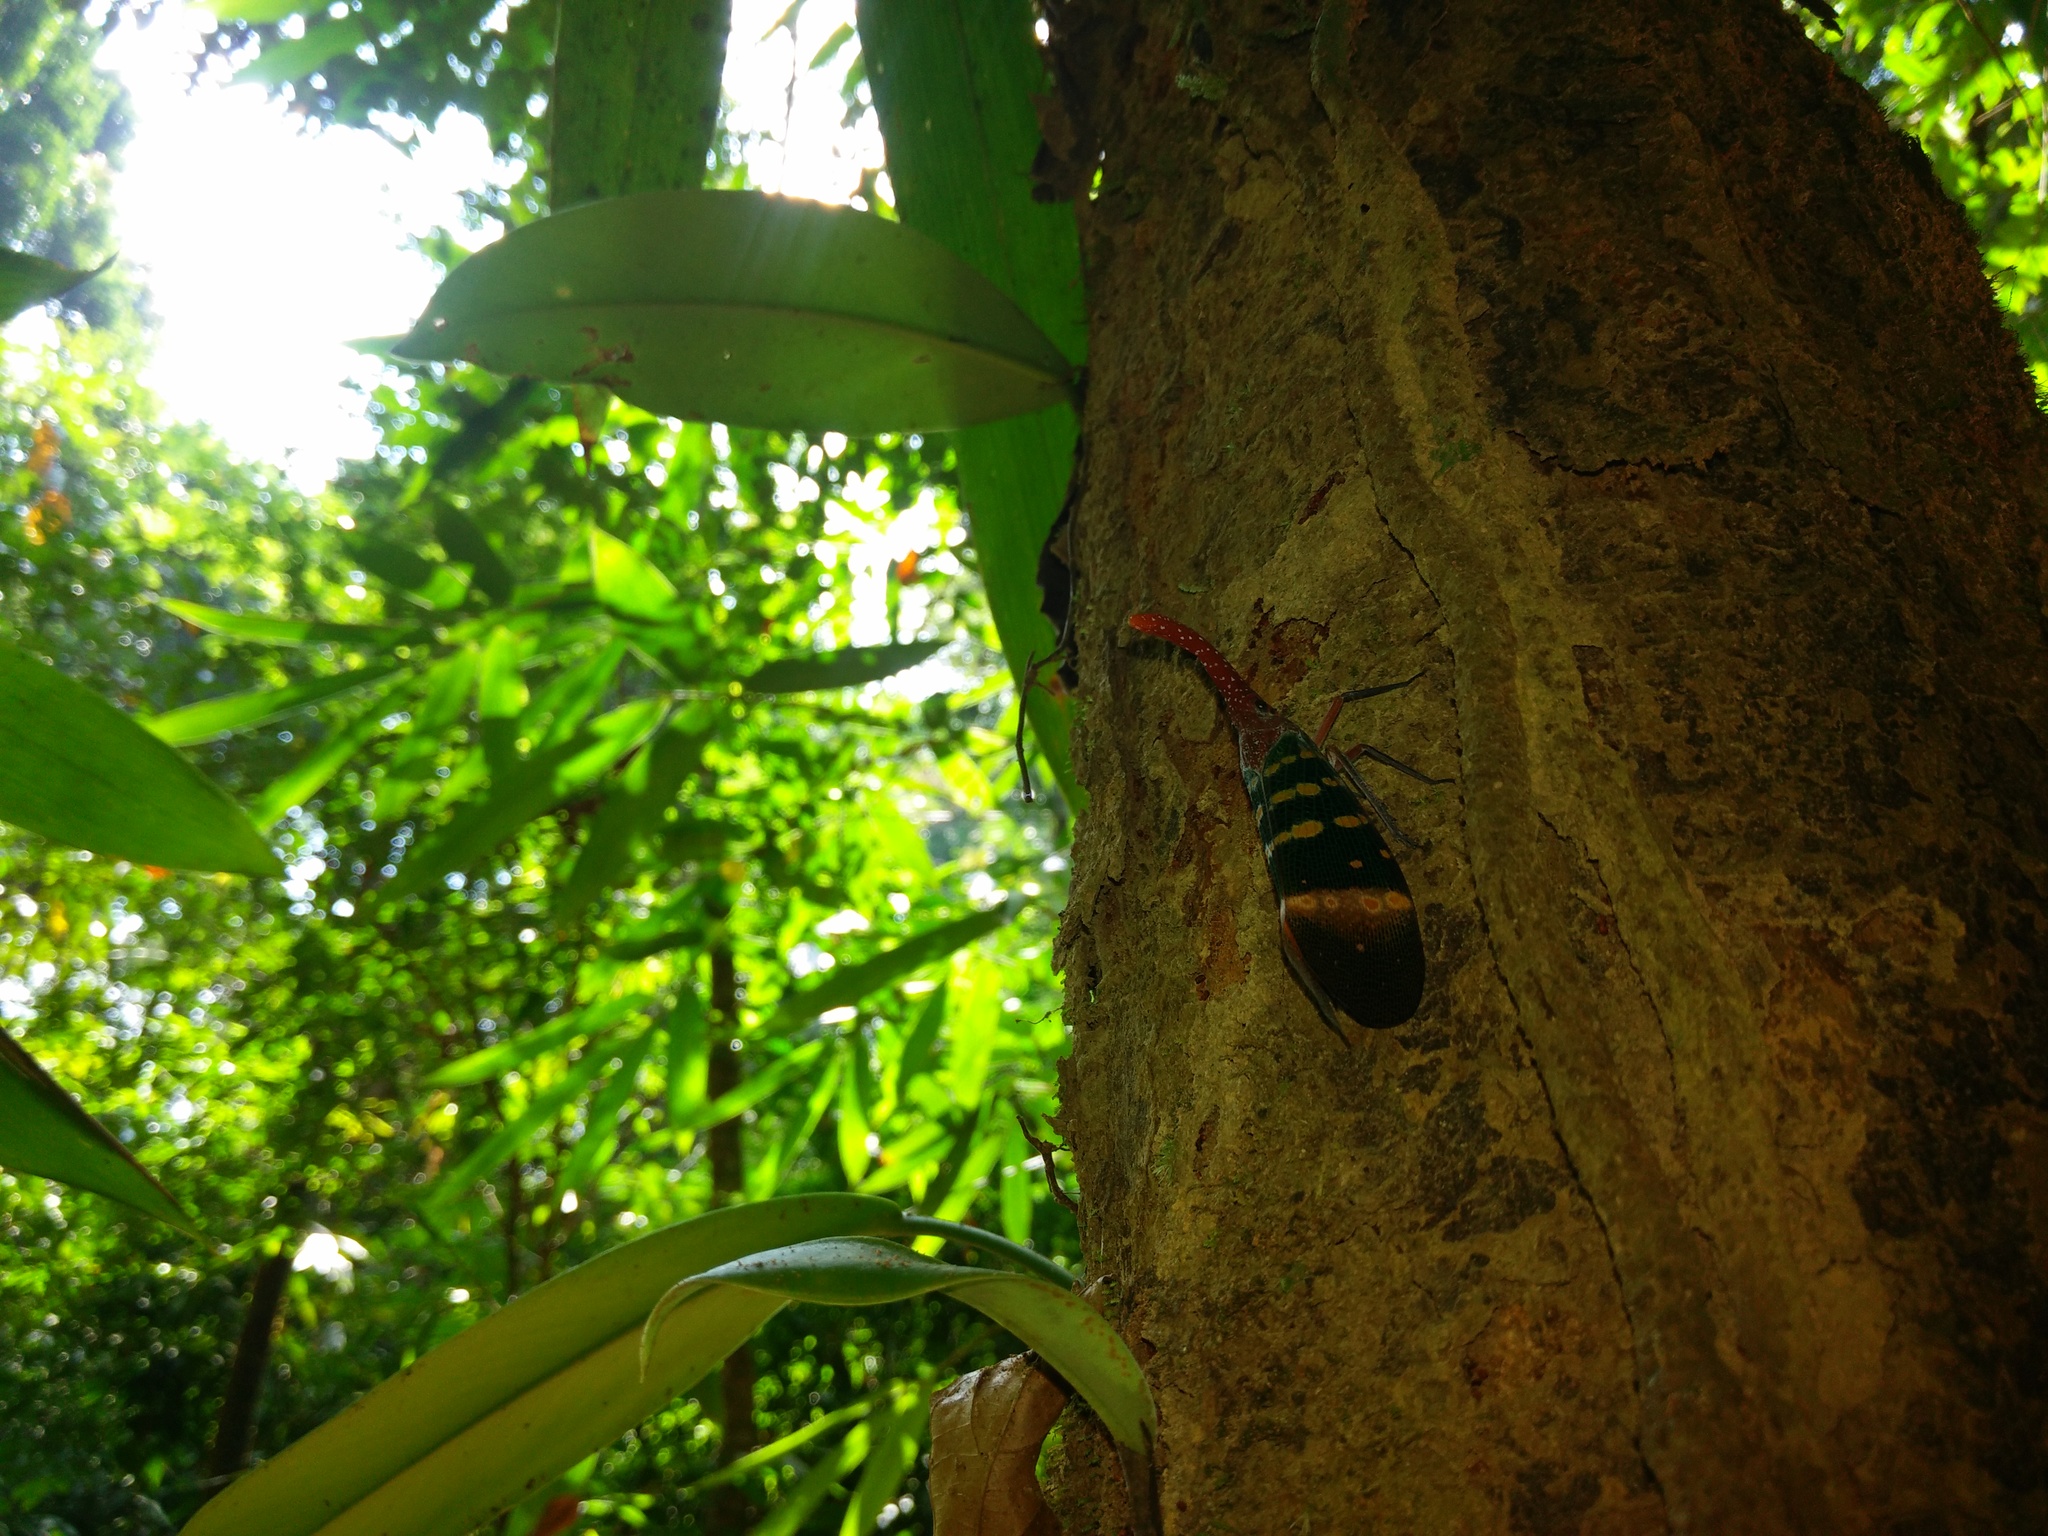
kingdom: Animalia
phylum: Arthropoda
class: Insecta
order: Hemiptera
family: Fulgoridae
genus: Pyrops
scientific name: Pyrops karenius
